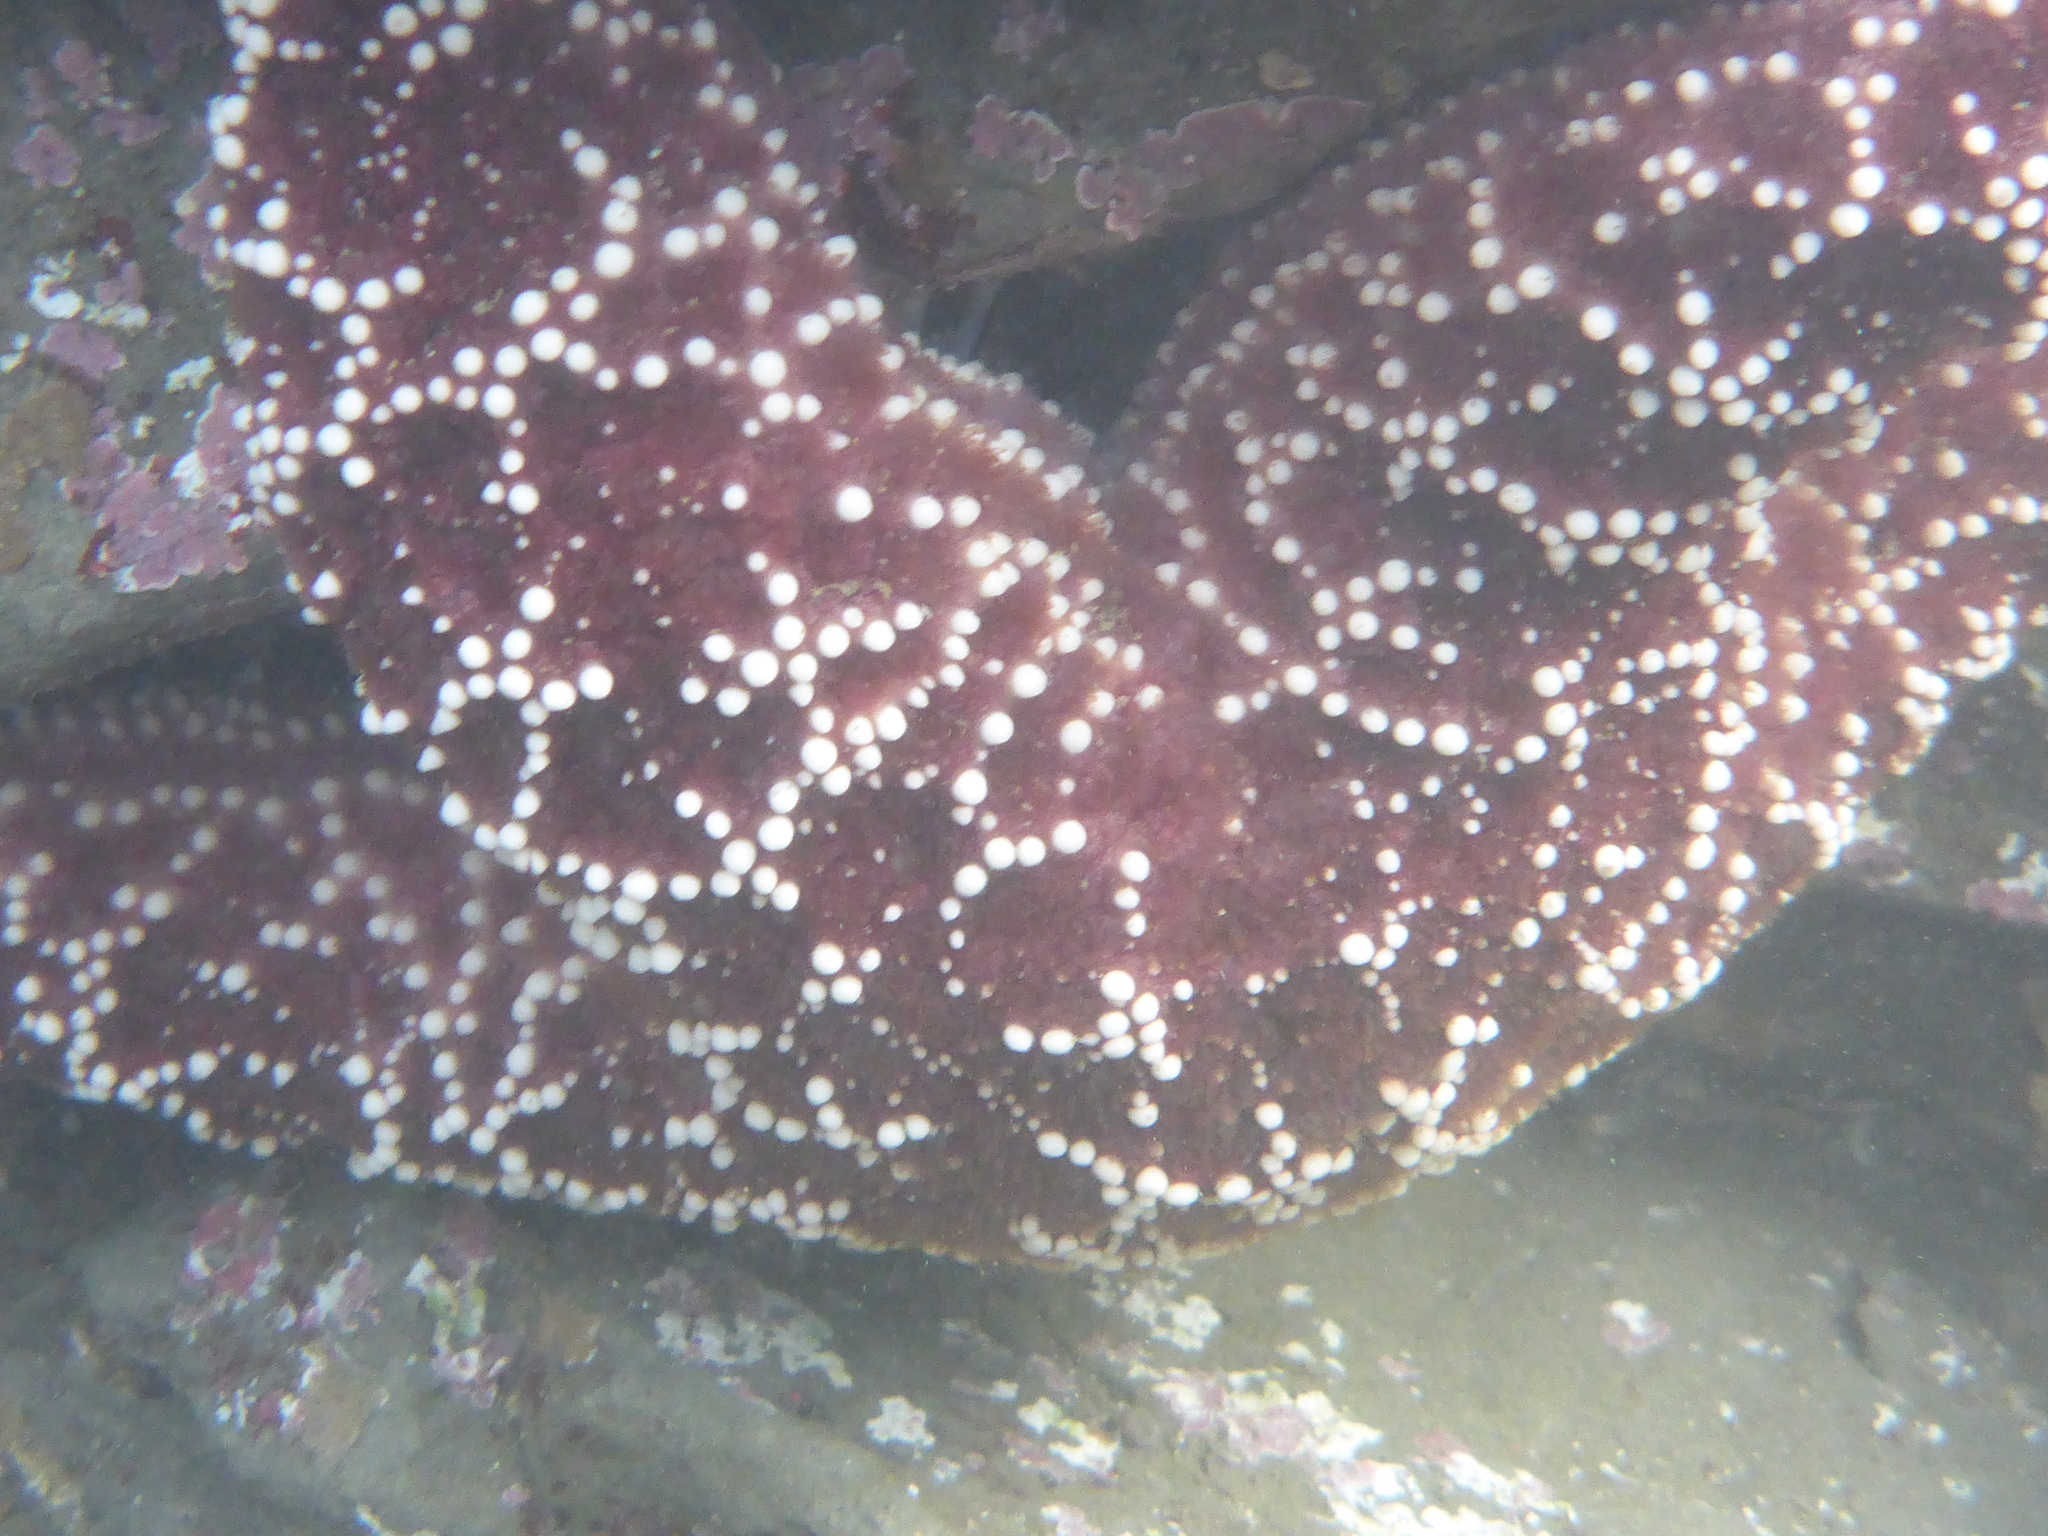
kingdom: Animalia
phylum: Echinodermata
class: Asteroidea
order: Forcipulatida
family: Asteriidae
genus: Pisaster
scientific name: Pisaster ochraceus
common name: Ochre stars
